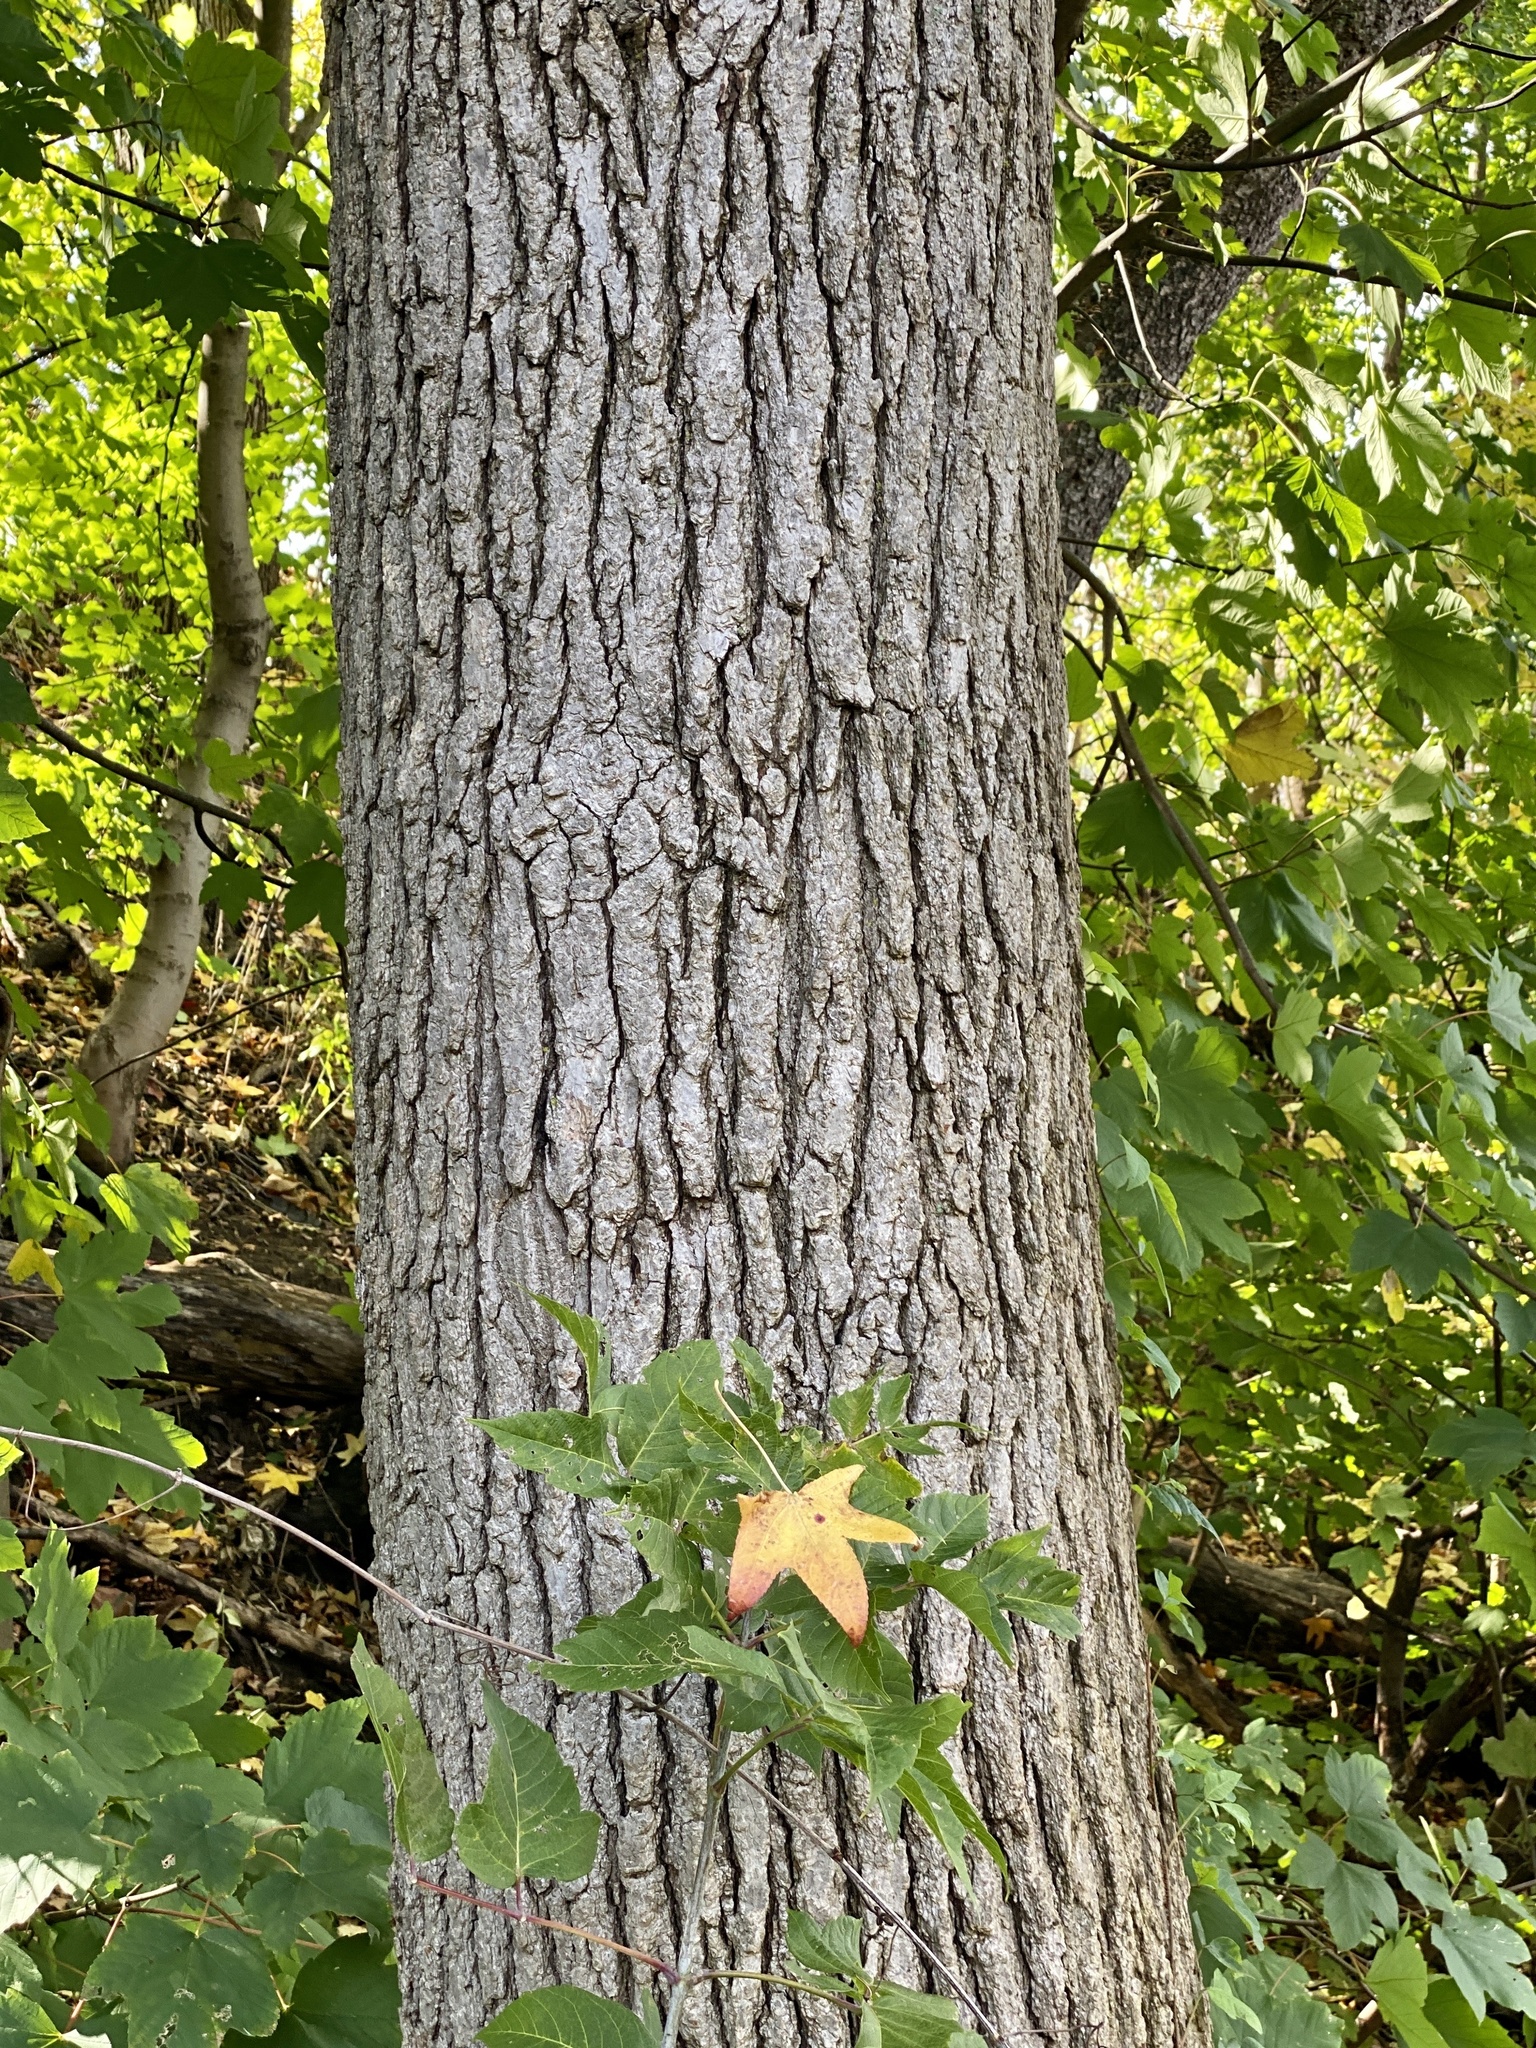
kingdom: Plantae
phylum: Tracheophyta
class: Magnoliopsida
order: Saxifragales
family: Altingiaceae
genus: Liquidambar
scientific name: Liquidambar styraciflua
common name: Sweet gum
